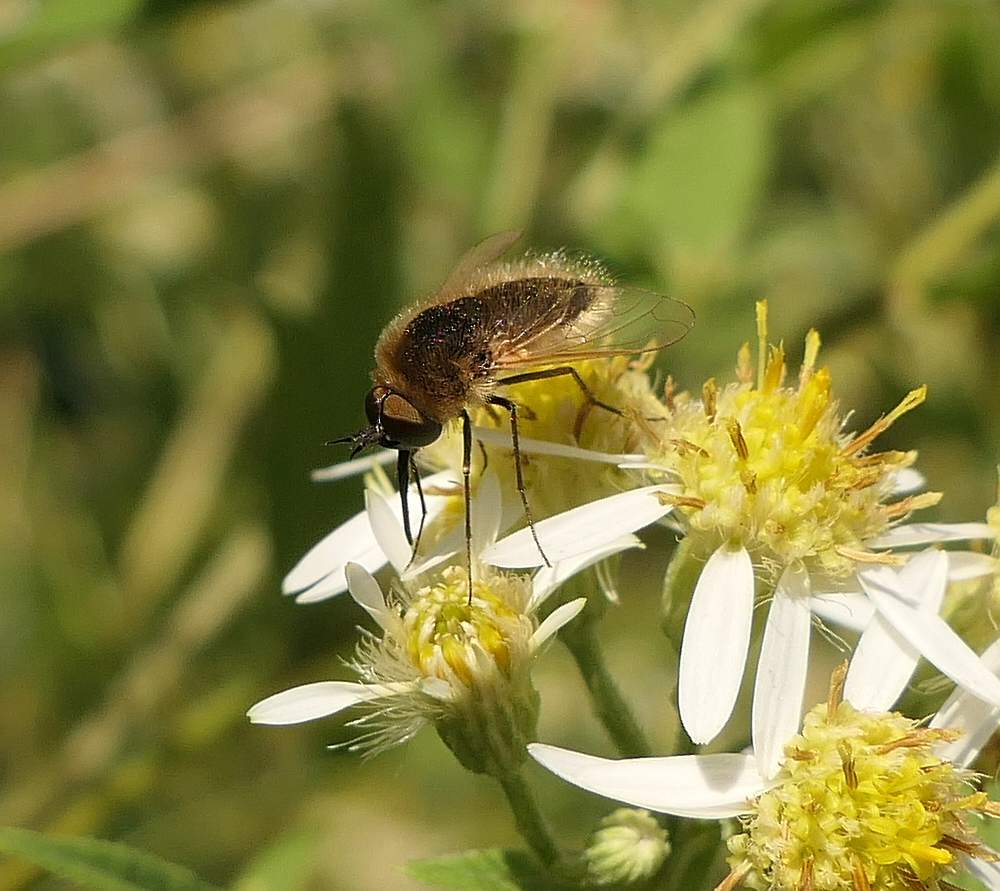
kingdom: Animalia
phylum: Arthropoda
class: Insecta
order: Diptera
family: Bombyliidae
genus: Sparnopolius
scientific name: Sparnopolius confusus
